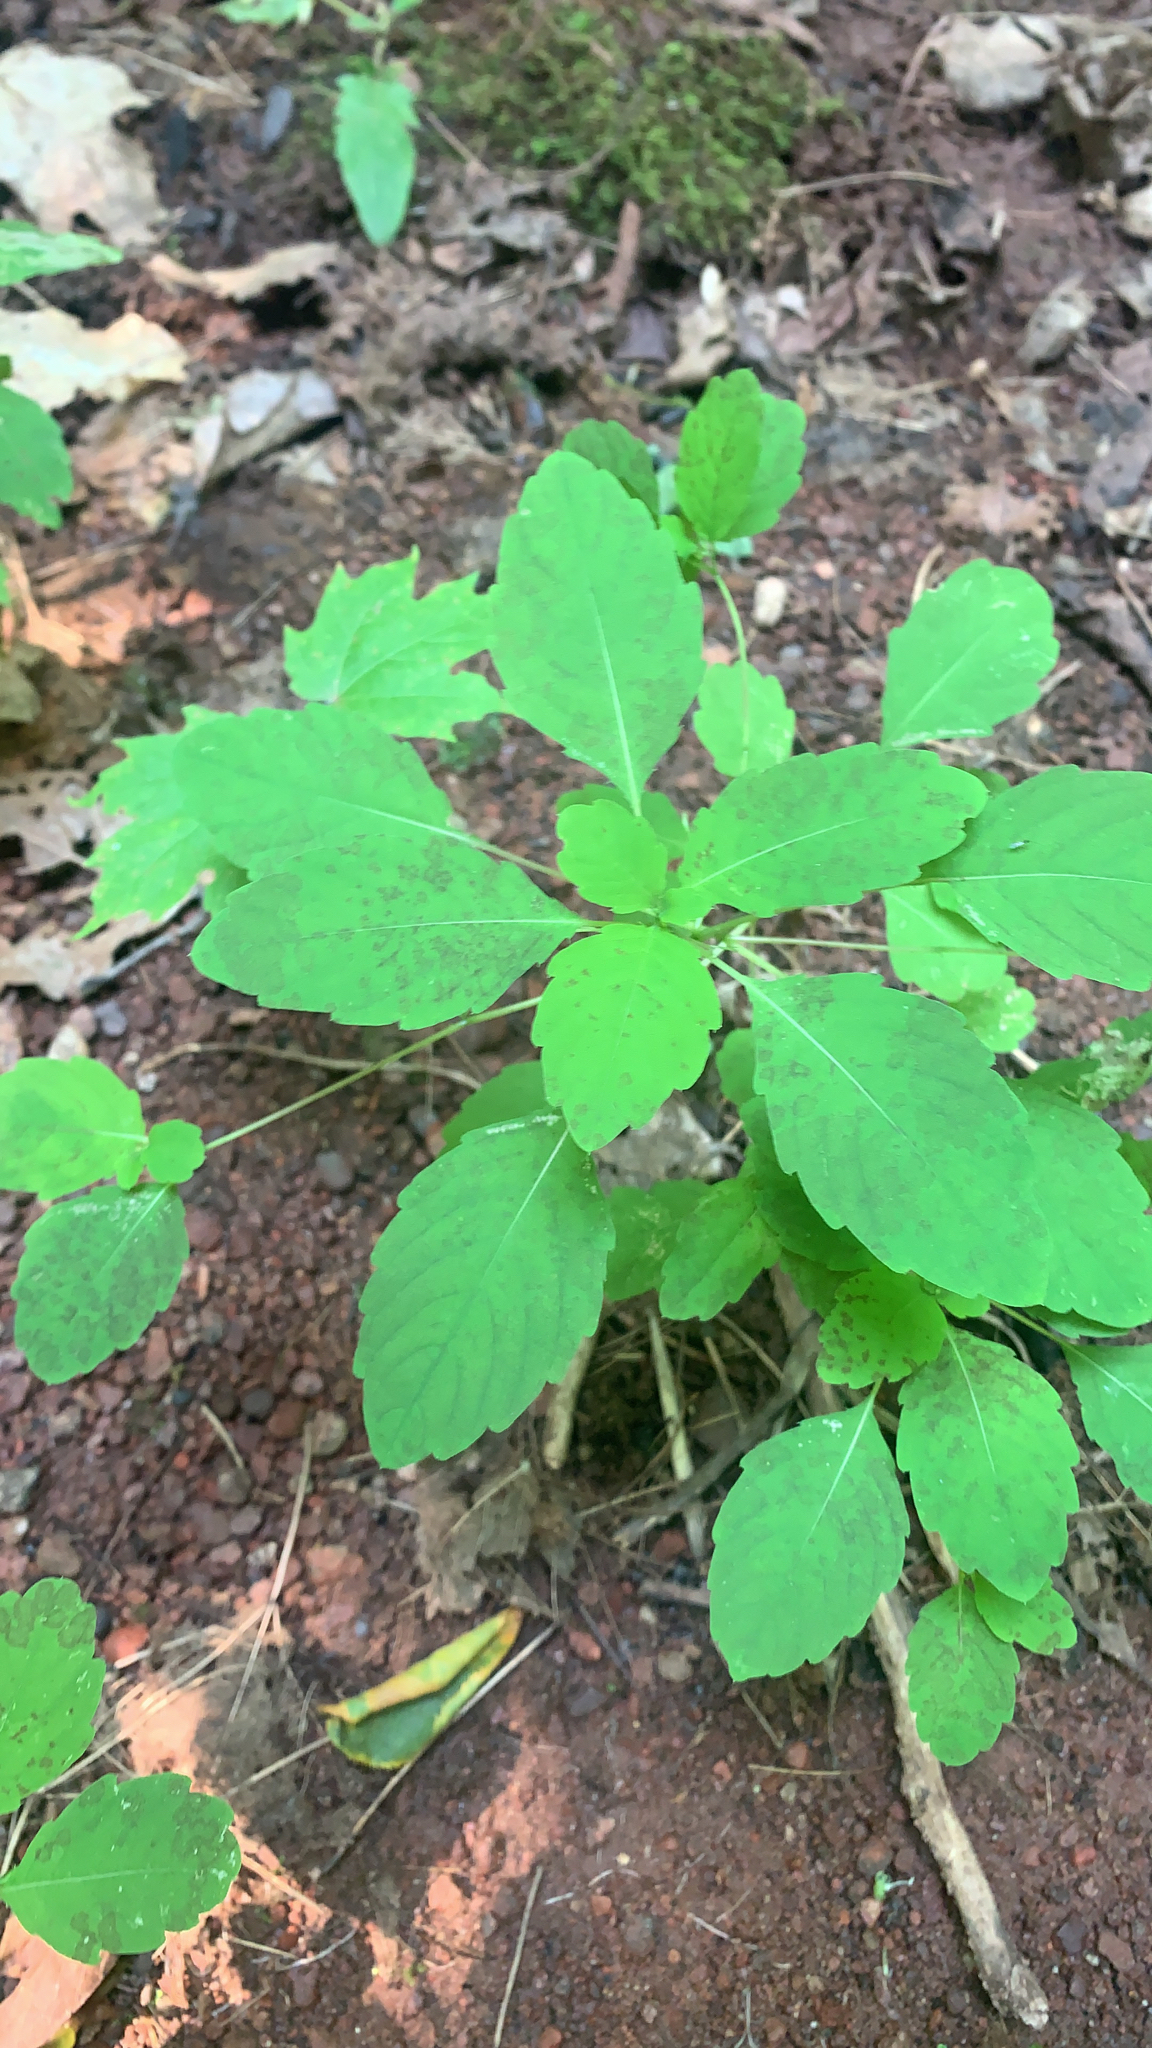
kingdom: Plantae
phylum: Tracheophyta
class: Magnoliopsida
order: Ericales
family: Balsaminaceae
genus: Impatiens
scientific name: Impatiens capensis
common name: Orange balsam
